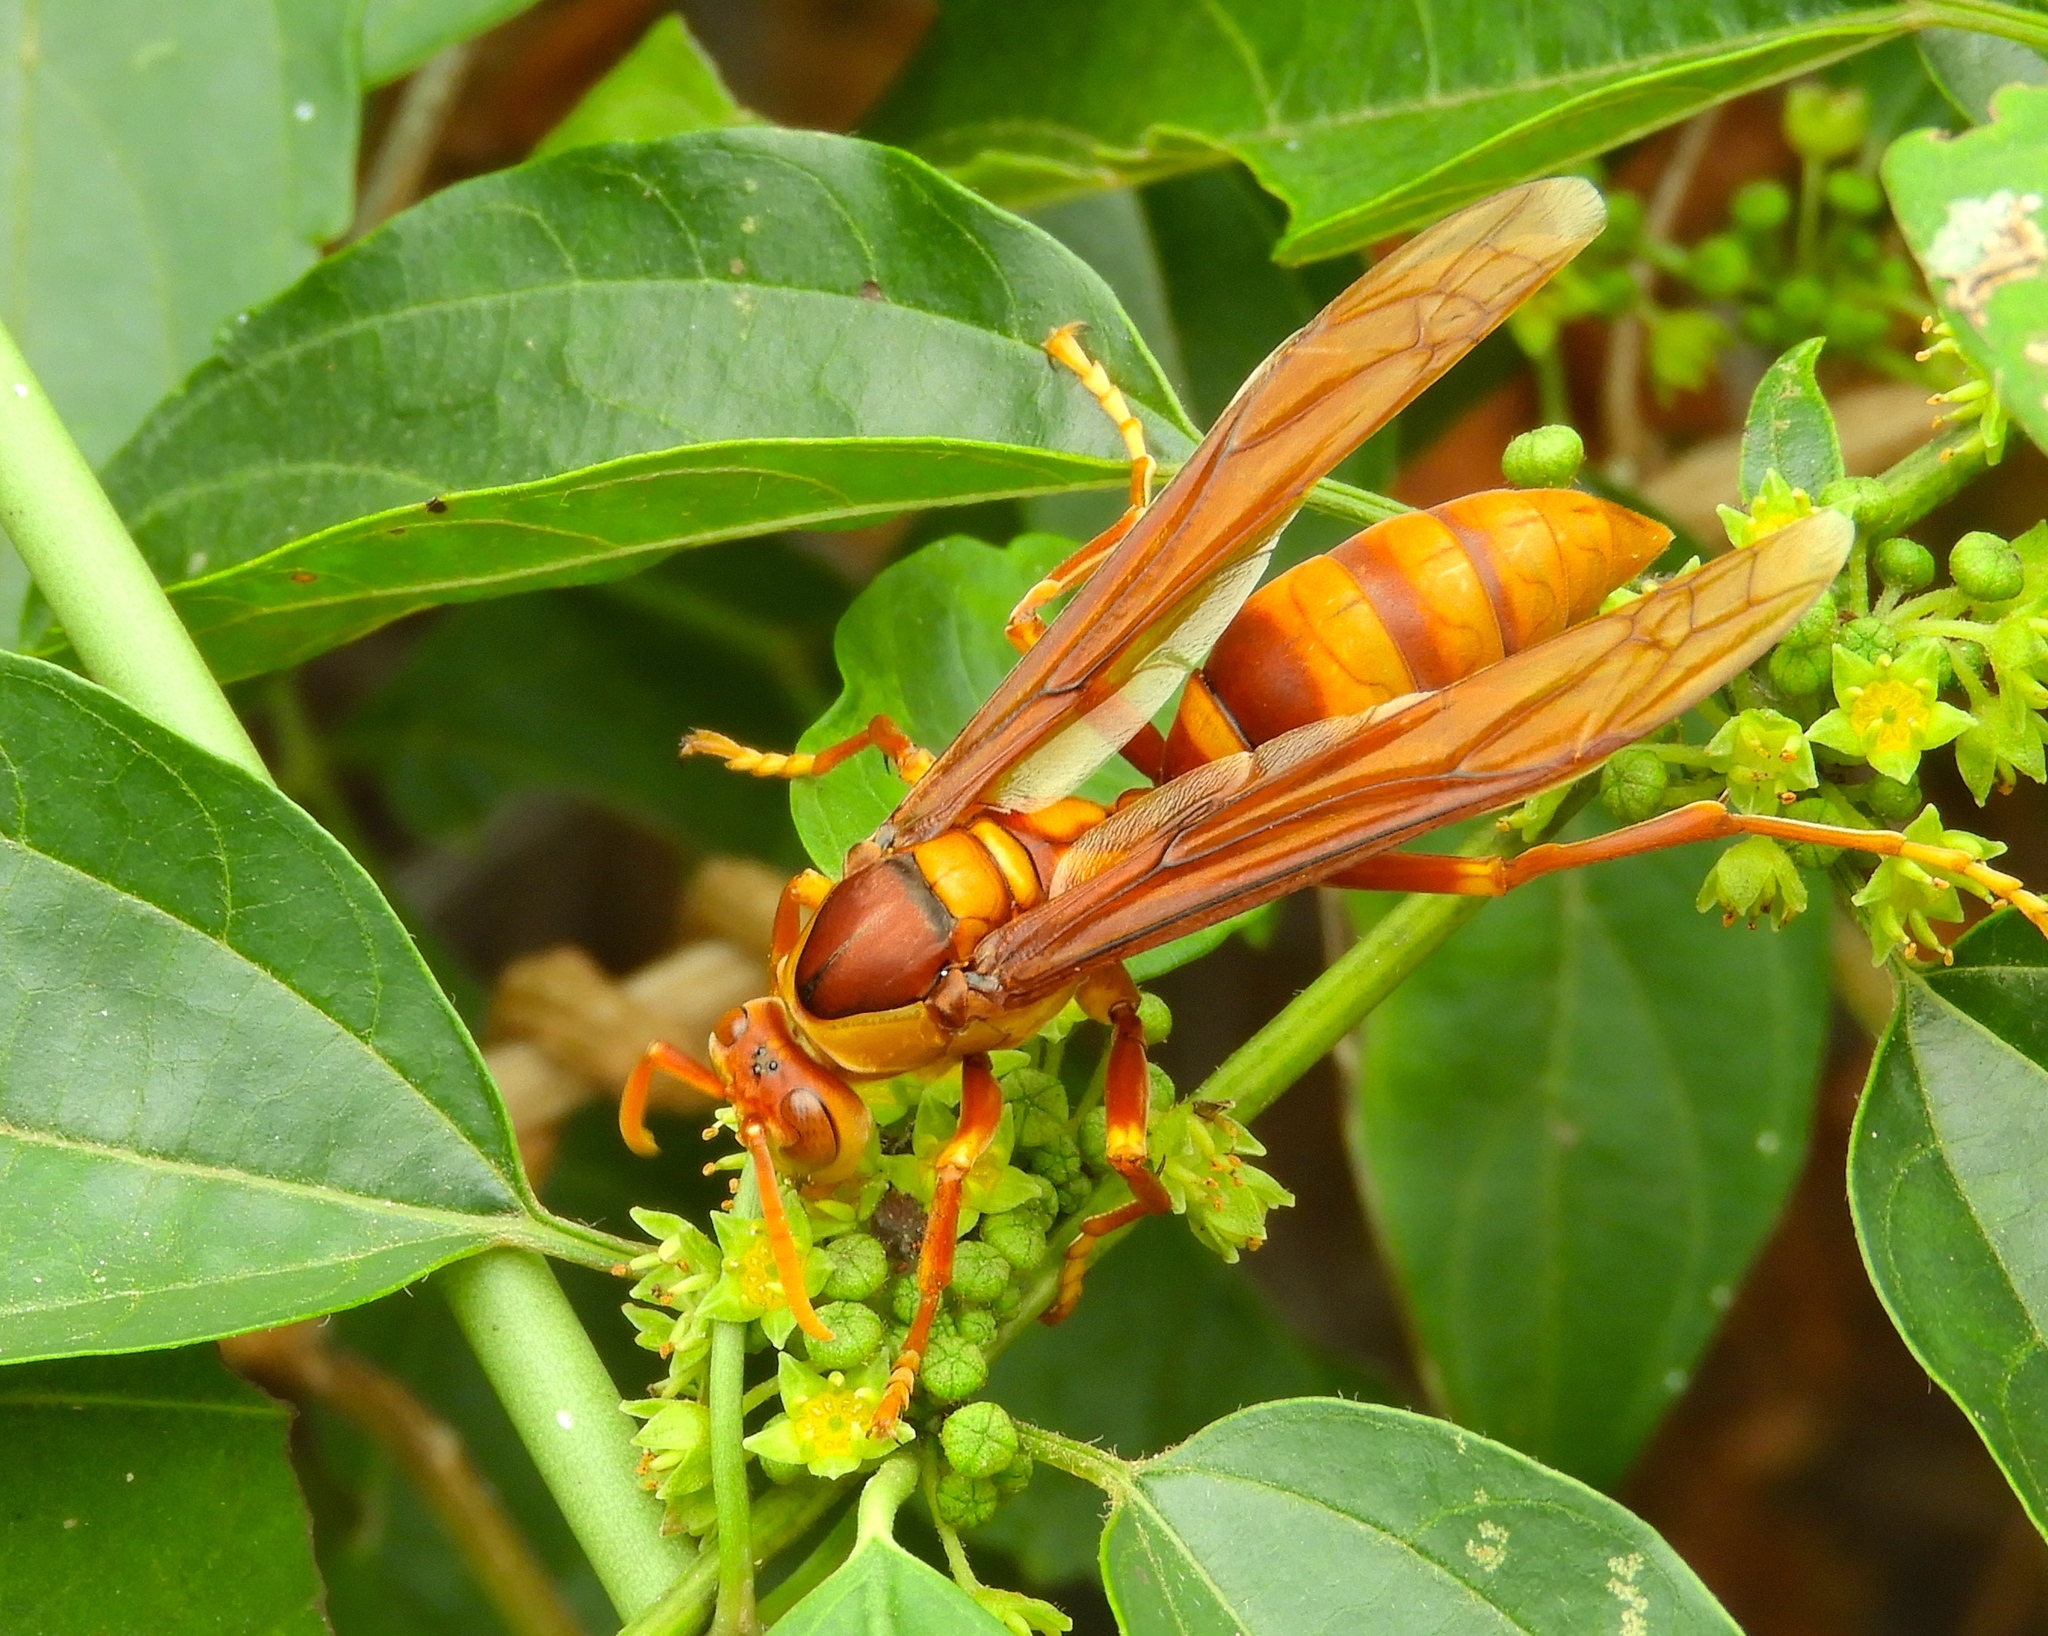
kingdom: Animalia
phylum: Arthropoda
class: Insecta
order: Hymenoptera
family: Eumenidae
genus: Polistes
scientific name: Polistes carnifex
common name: Paper wasp
